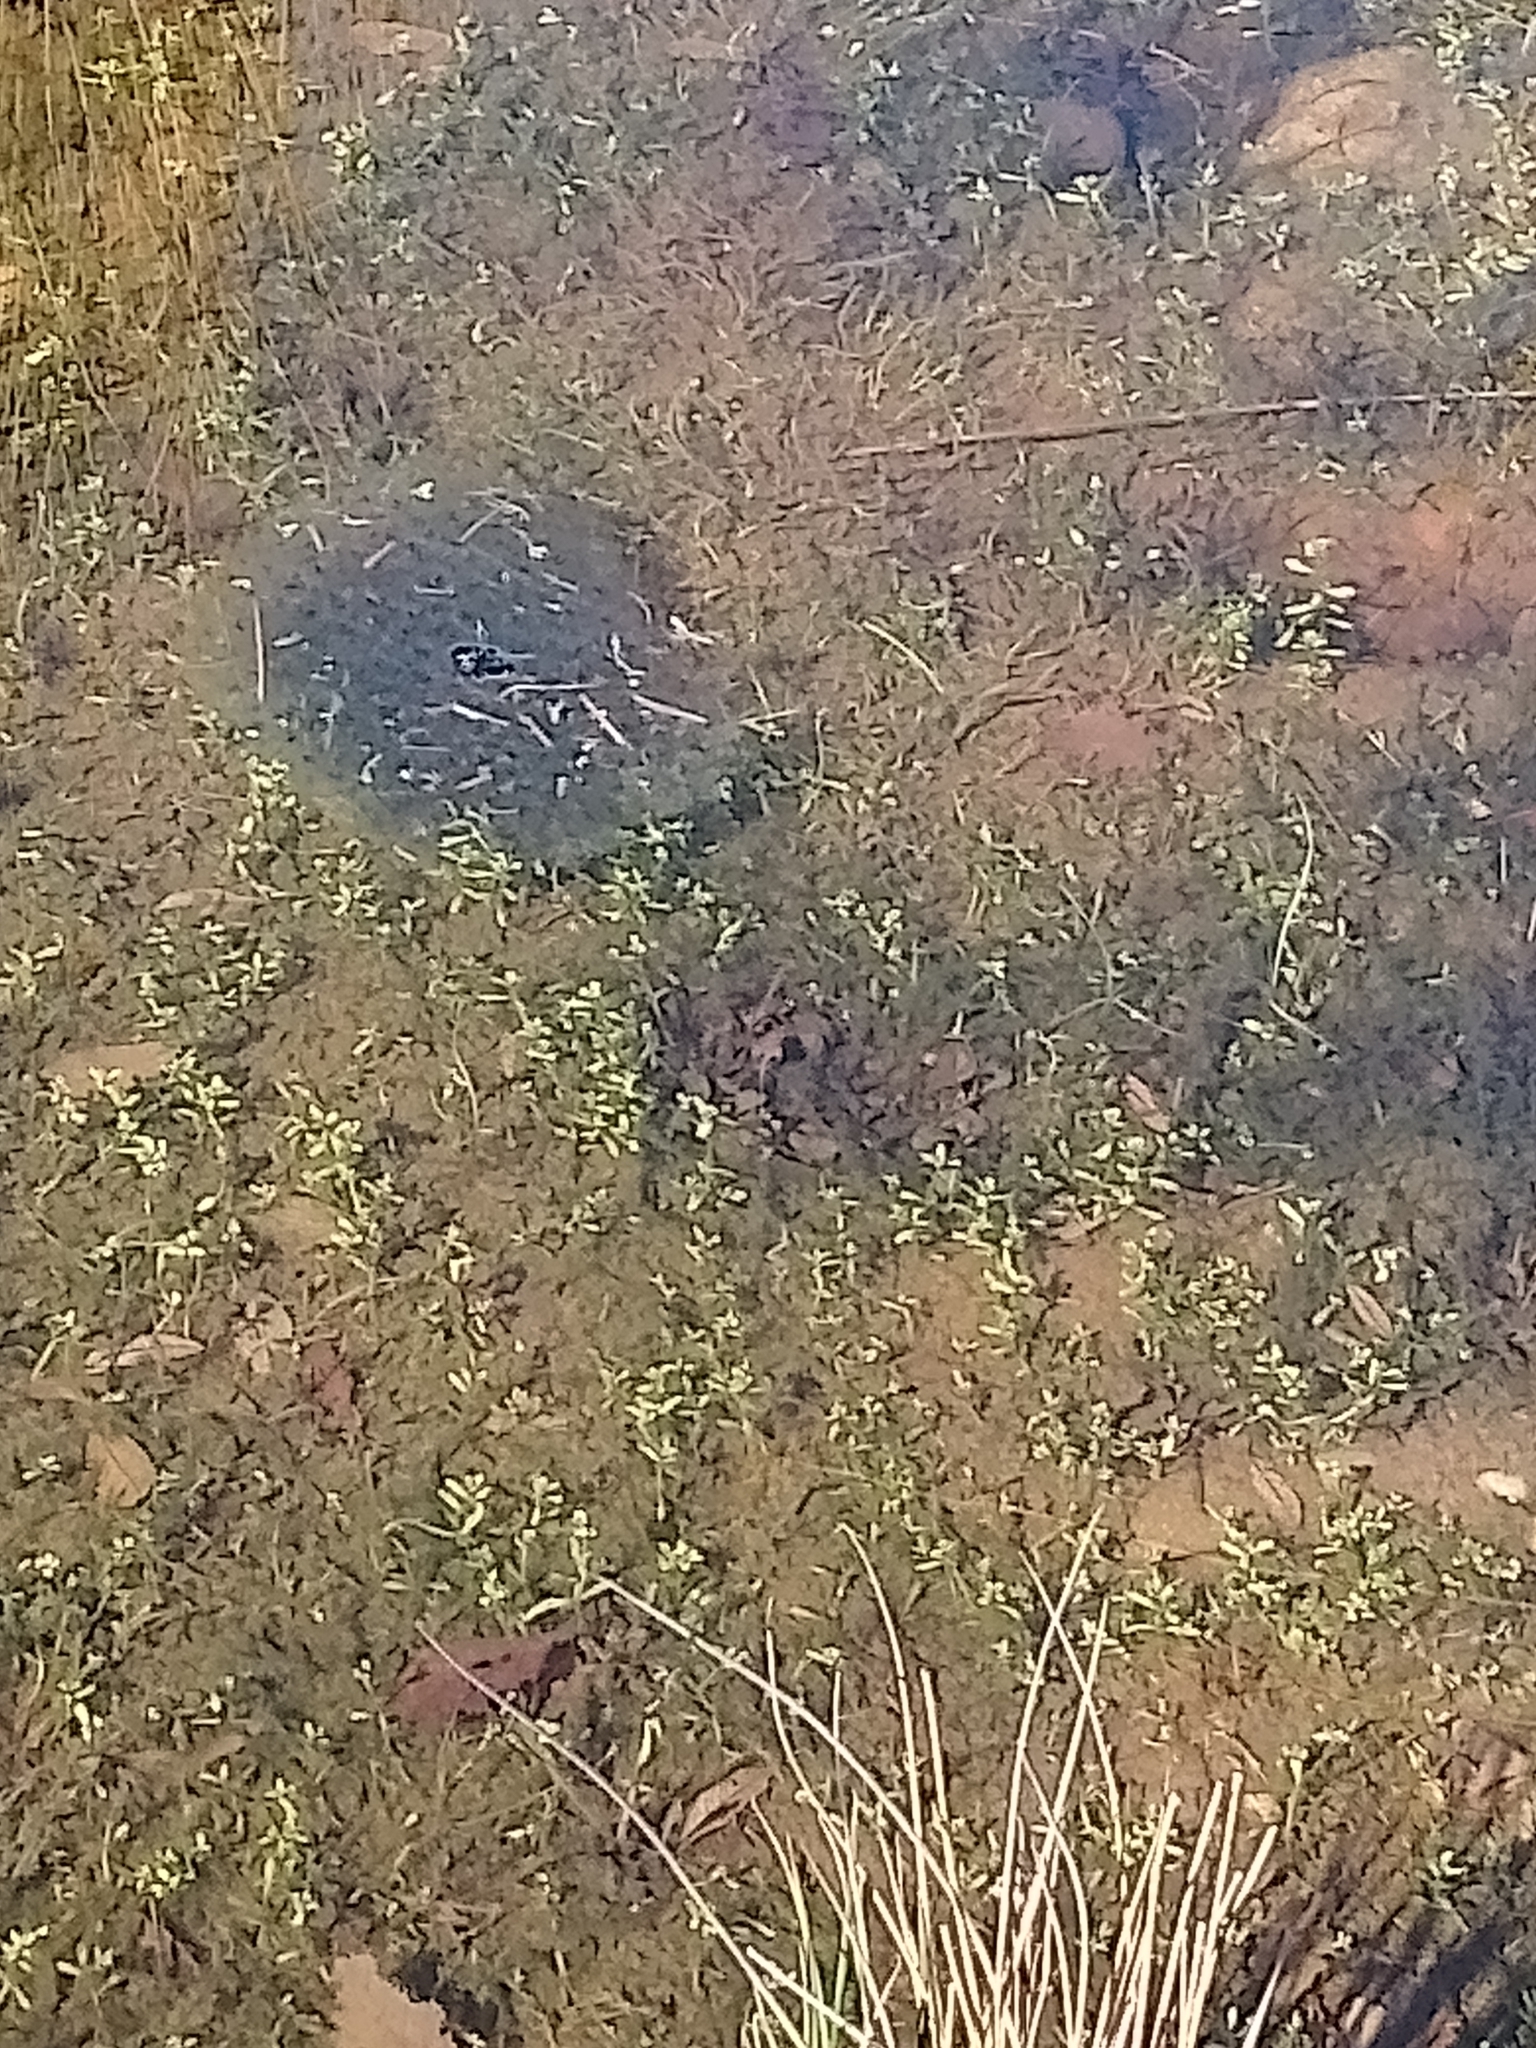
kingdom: Animalia
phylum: Chordata
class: Amphibia
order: Anura
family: Ranidae
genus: Rana
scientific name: Rana temporaria
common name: Common frog
